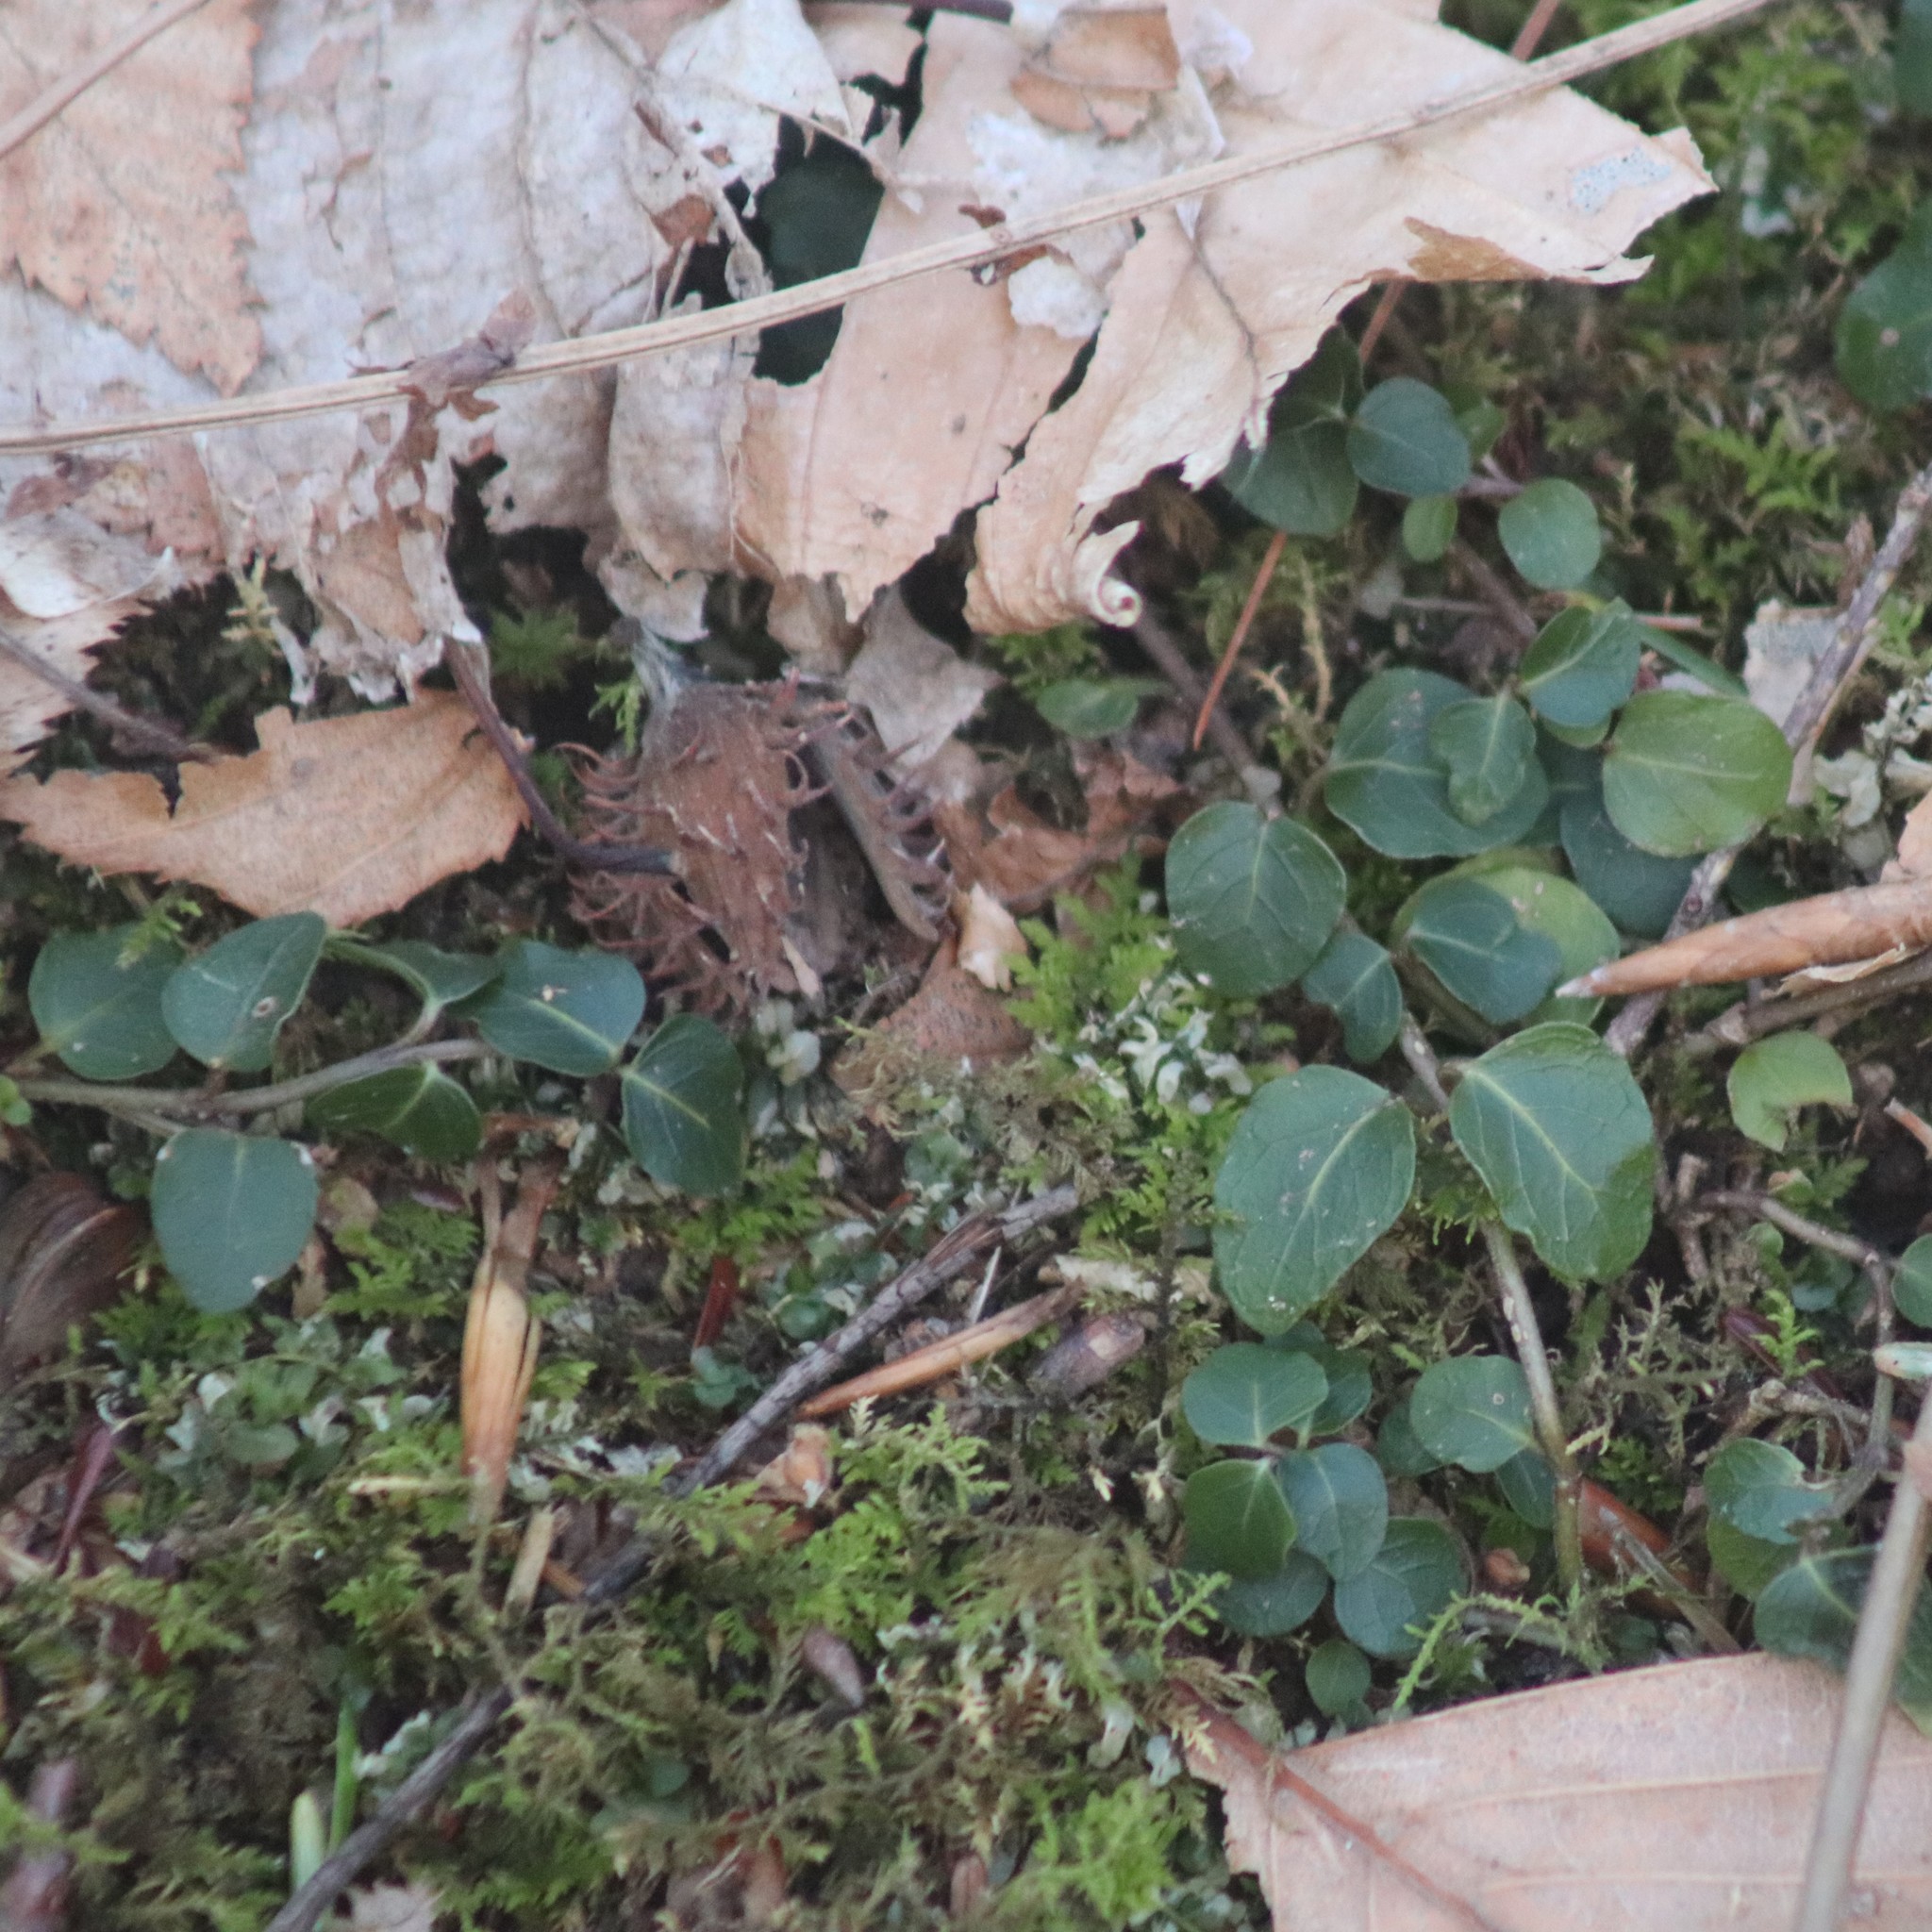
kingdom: Plantae
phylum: Tracheophyta
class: Magnoliopsida
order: Gentianales
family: Rubiaceae
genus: Mitchella
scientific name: Mitchella repens
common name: Partridge-berry
